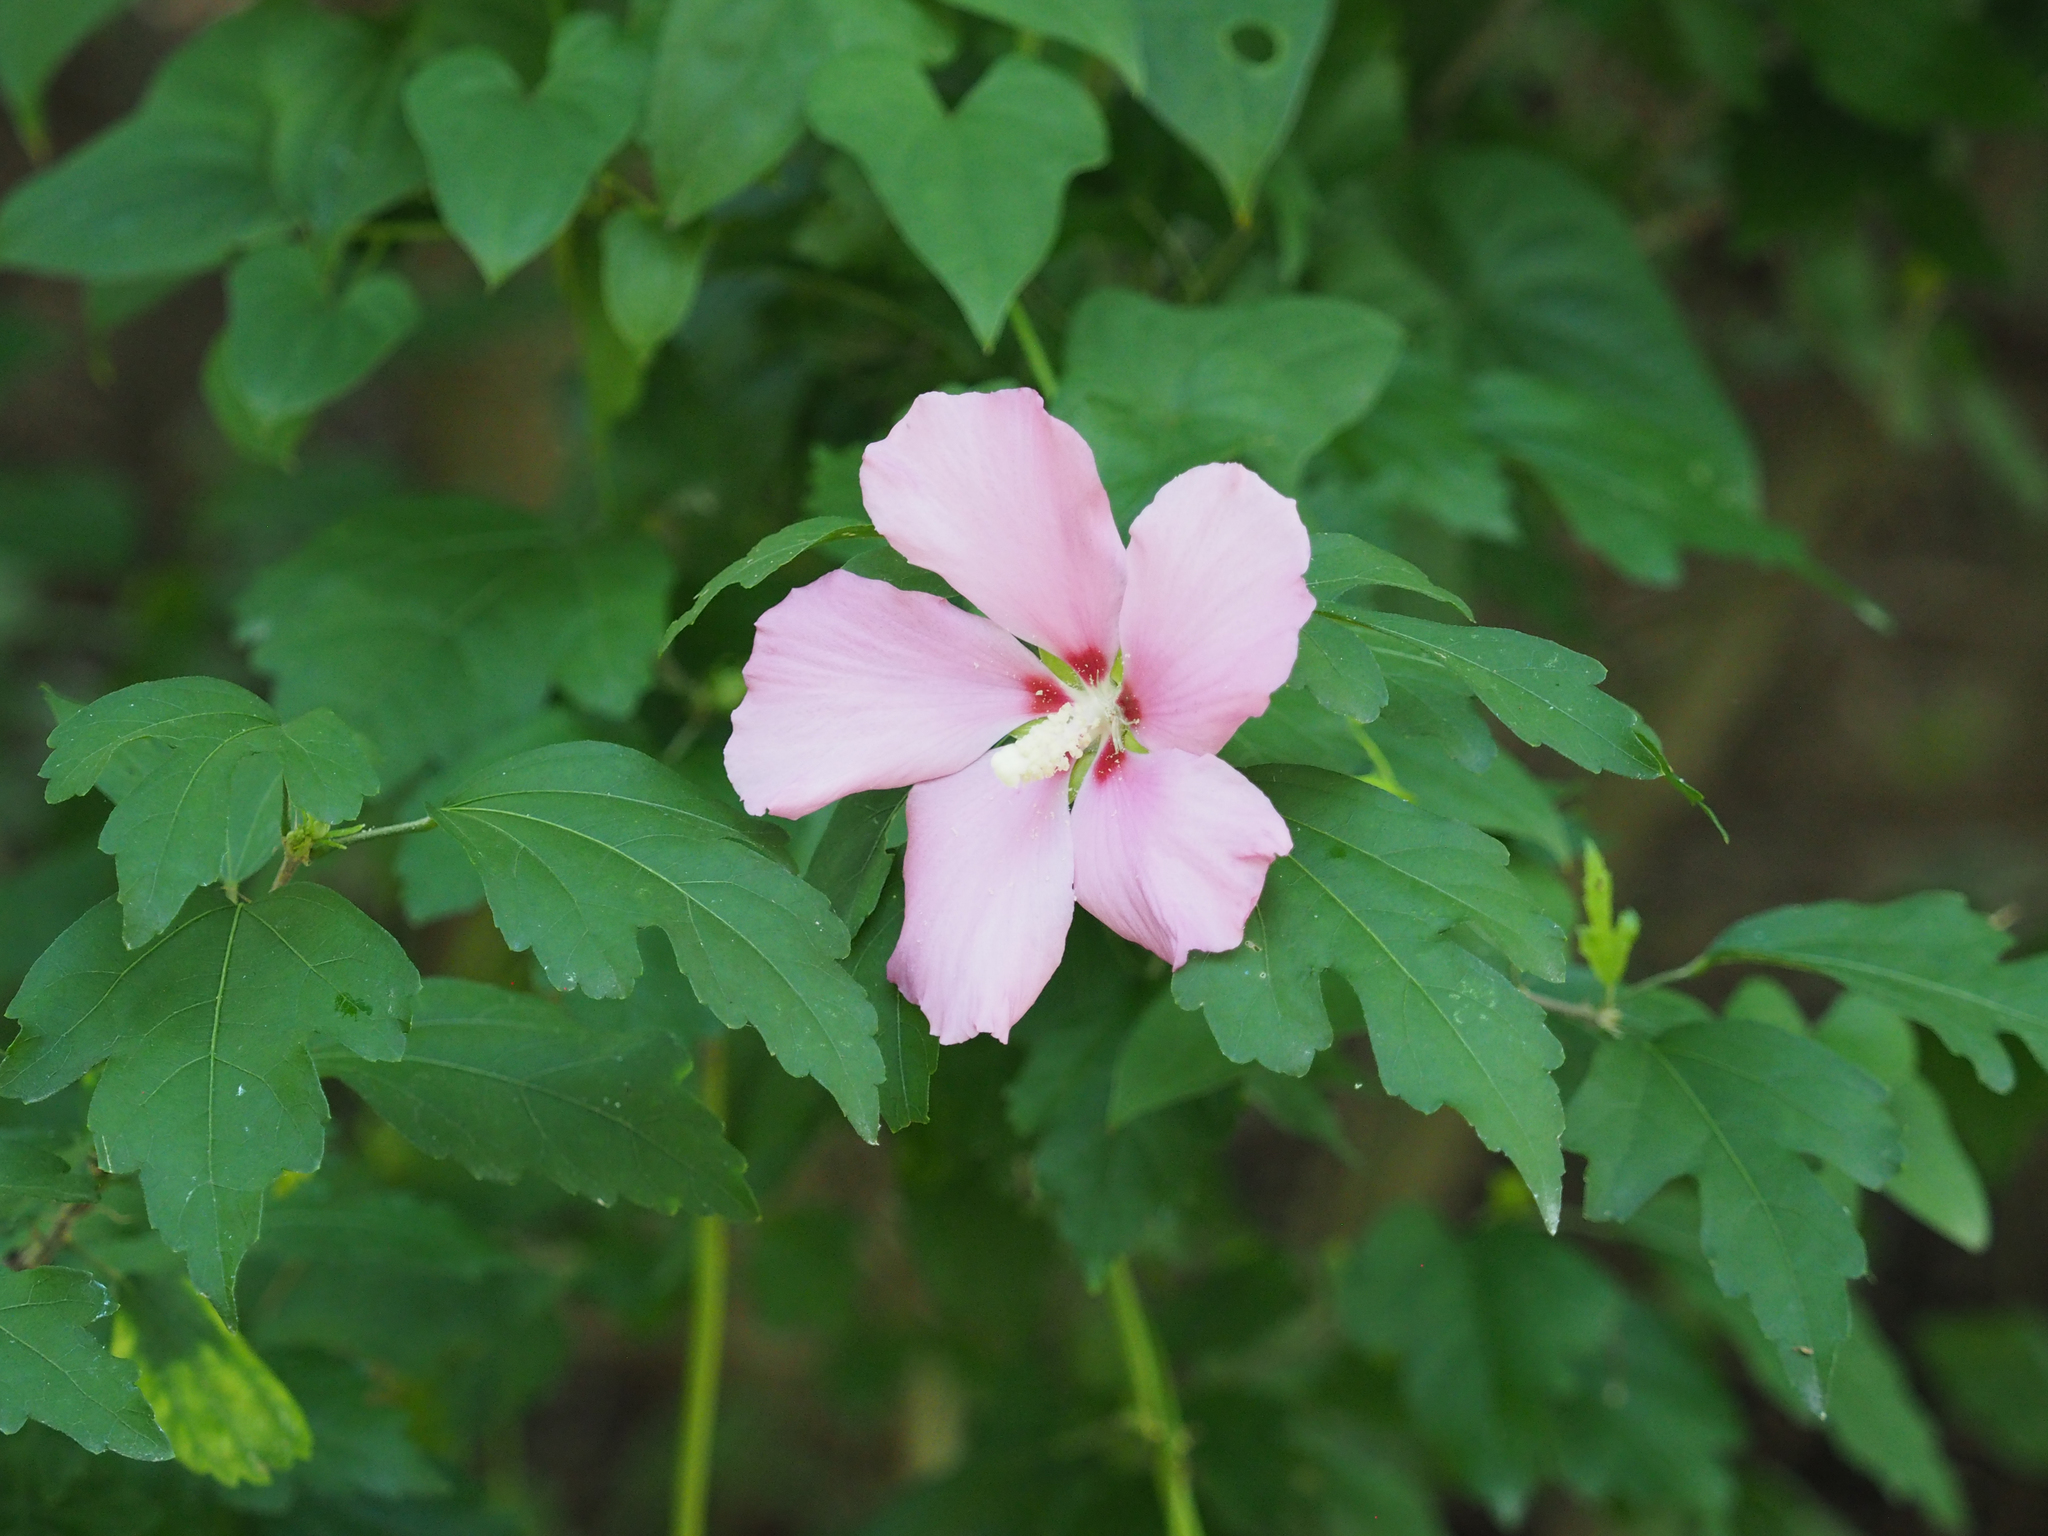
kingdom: Plantae
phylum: Tracheophyta
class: Magnoliopsida
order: Malvales
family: Malvaceae
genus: Hibiscus
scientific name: Hibiscus syriacus
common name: Syrian ketmia
